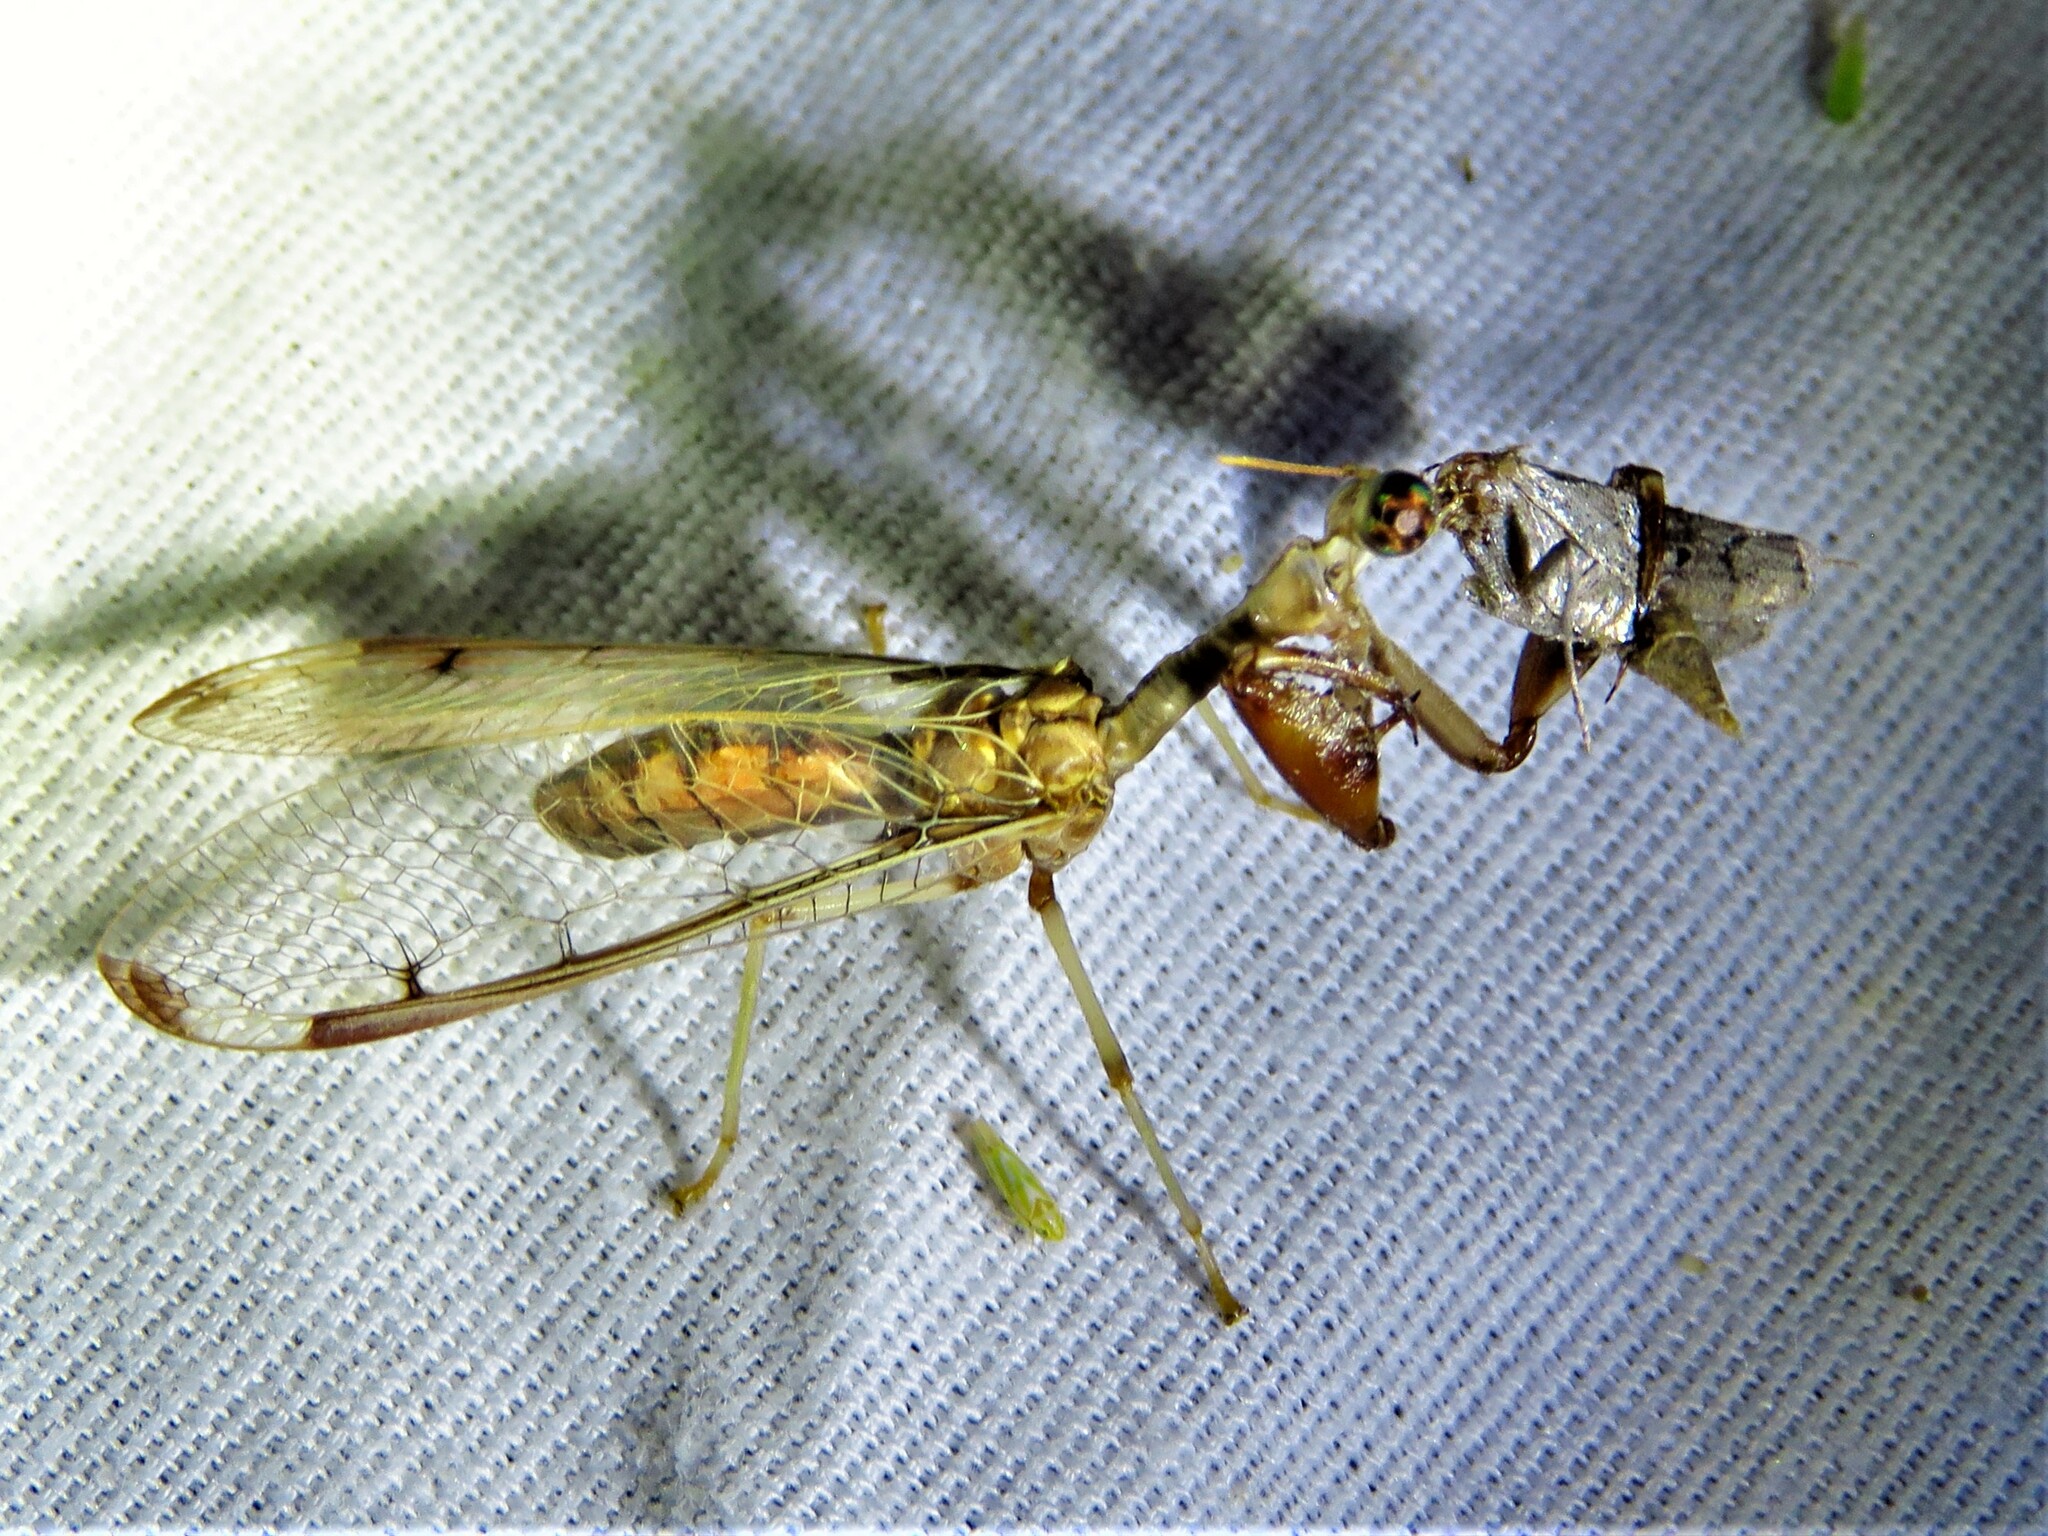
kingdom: Animalia
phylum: Arthropoda
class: Insecta
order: Neuroptera
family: Mantispidae
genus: Dicromantispa
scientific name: Dicromantispa interrupta
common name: Four-spotted mantidfly
